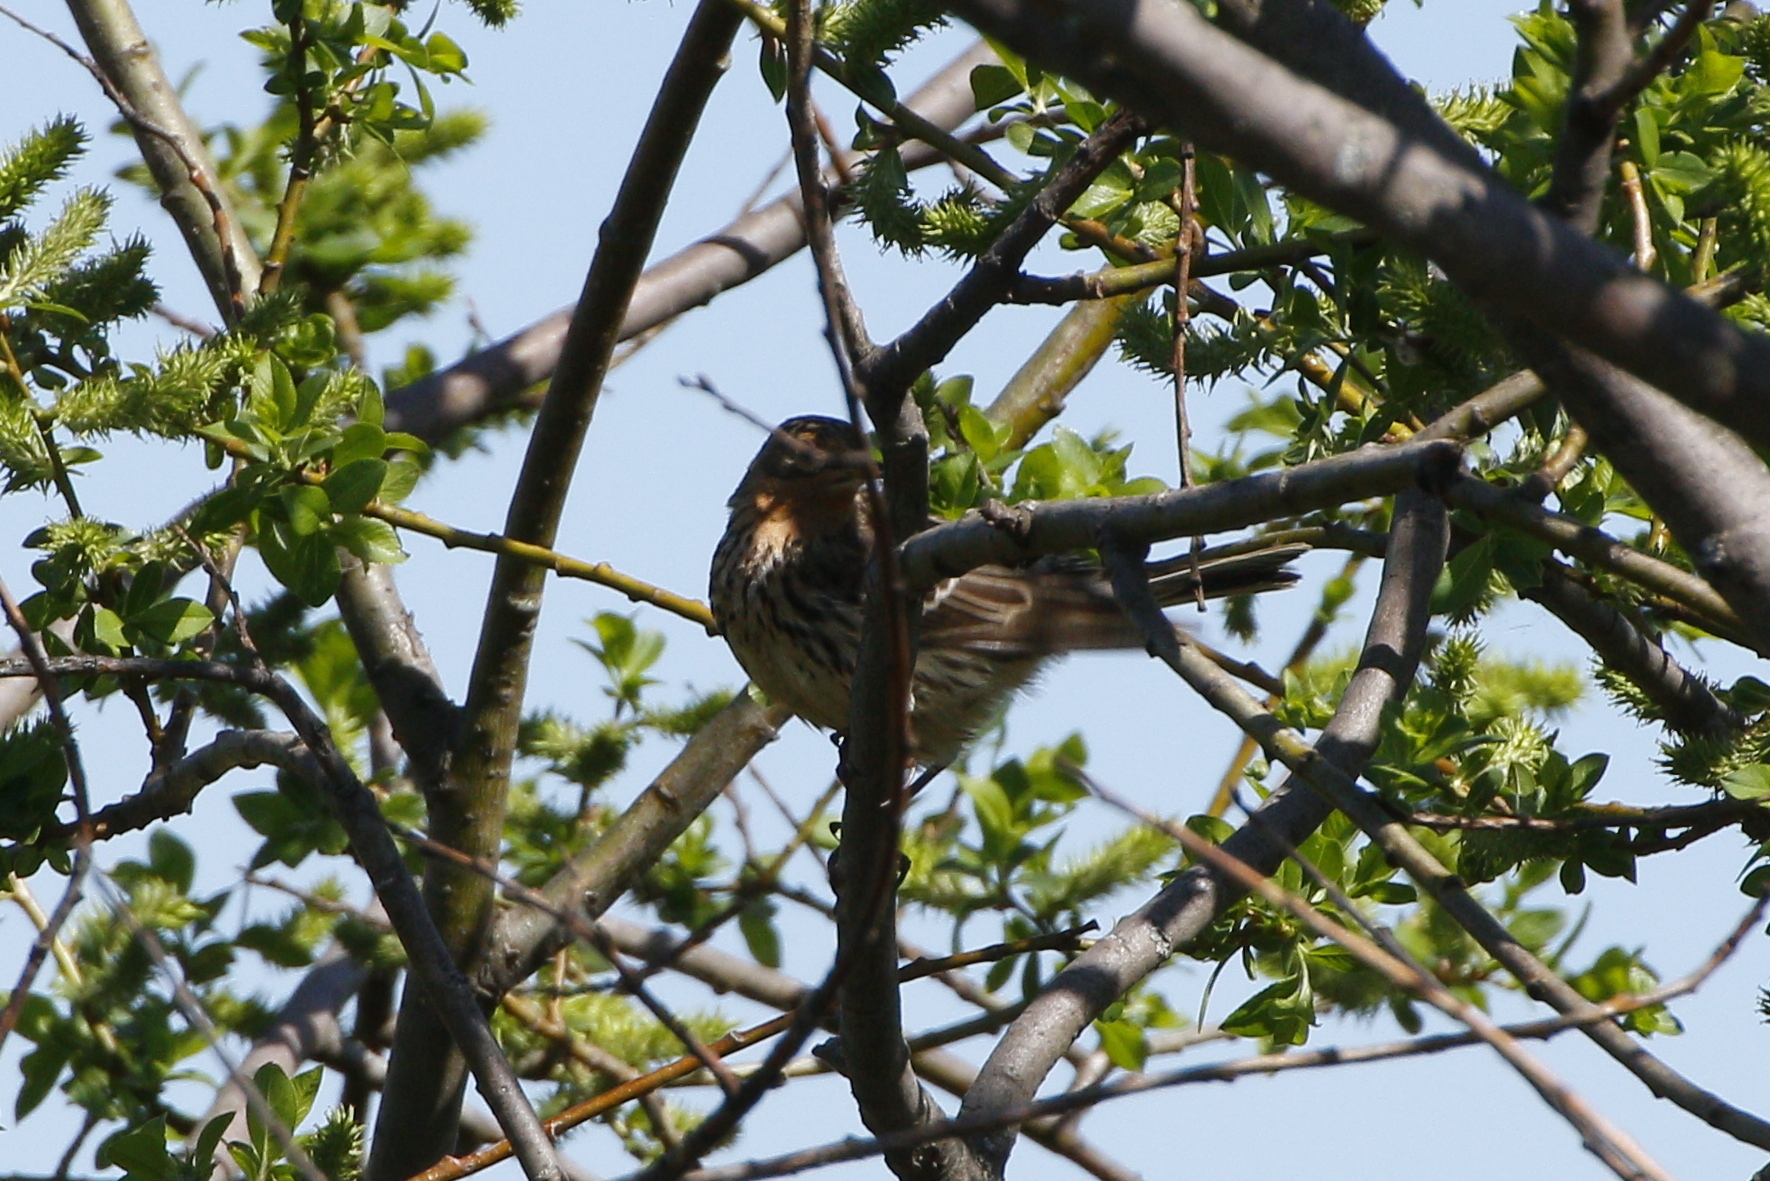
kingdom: Animalia
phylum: Chordata
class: Aves
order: Passeriformes
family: Motacillidae
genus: Anthus
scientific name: Anthus cervinus
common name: Red-throated pipit
